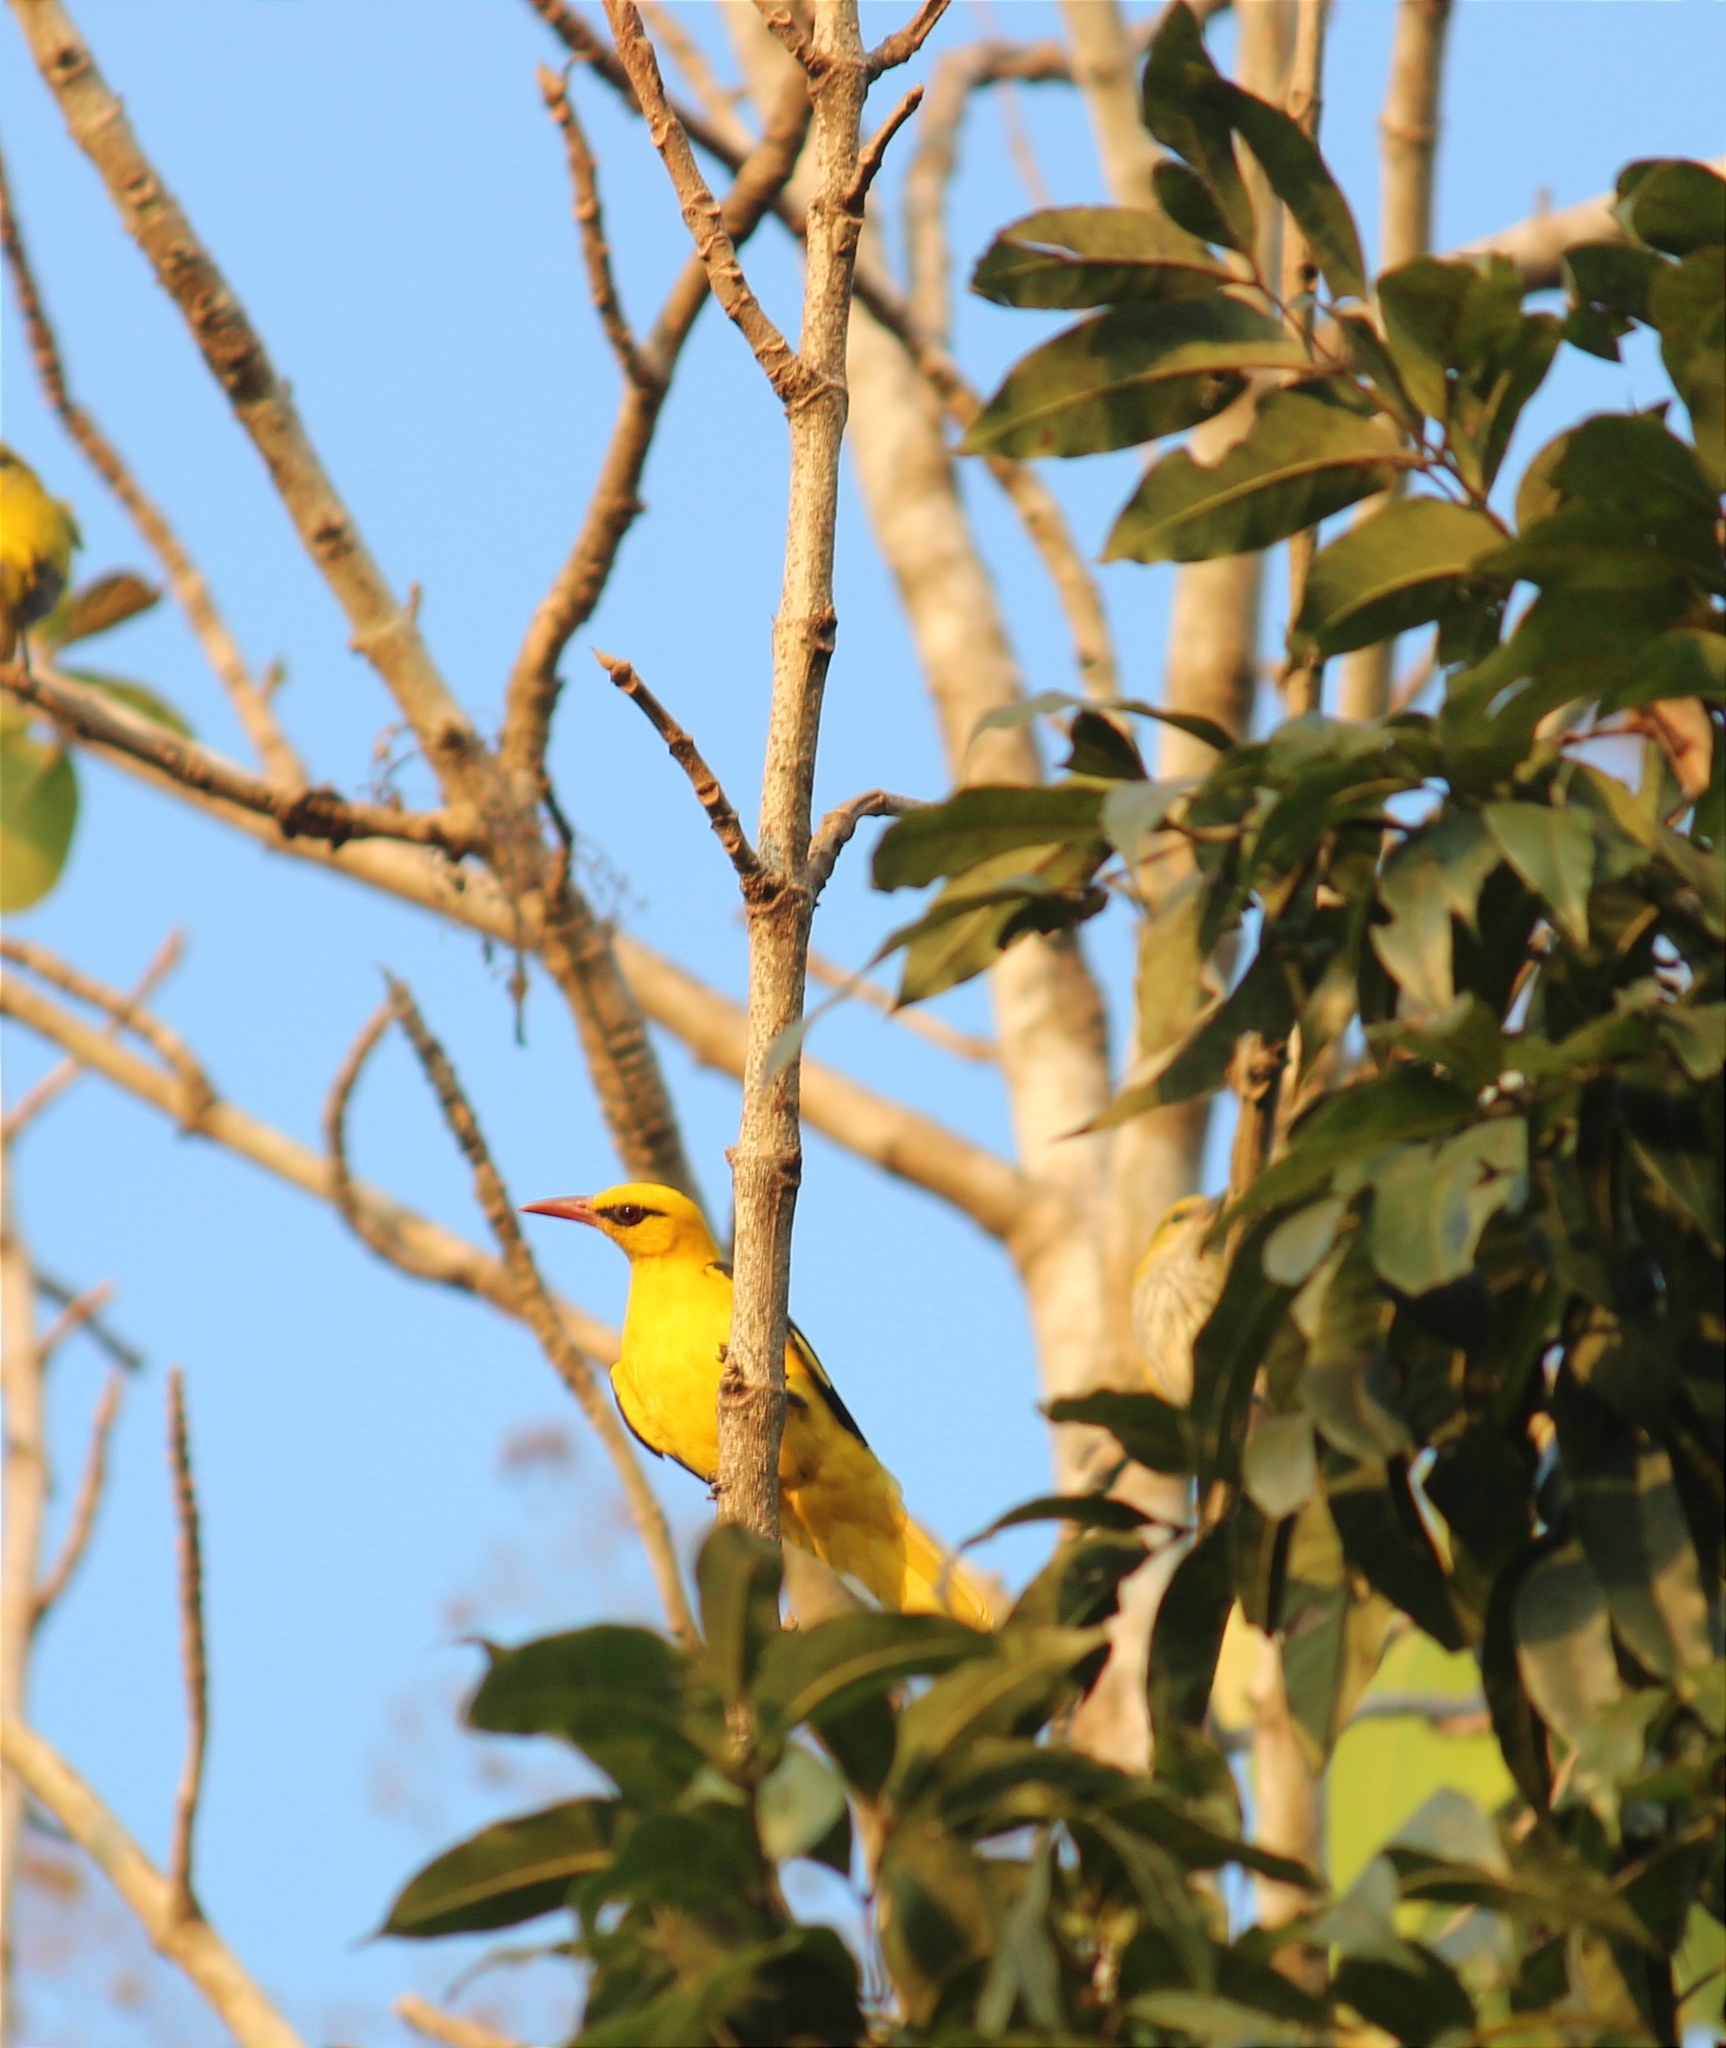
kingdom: Animalia
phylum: Chordata
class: Aves
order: Passeriformes
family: Oriolidae
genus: Oriolus
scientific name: Oriolus kundoo
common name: Indian golden oriole
